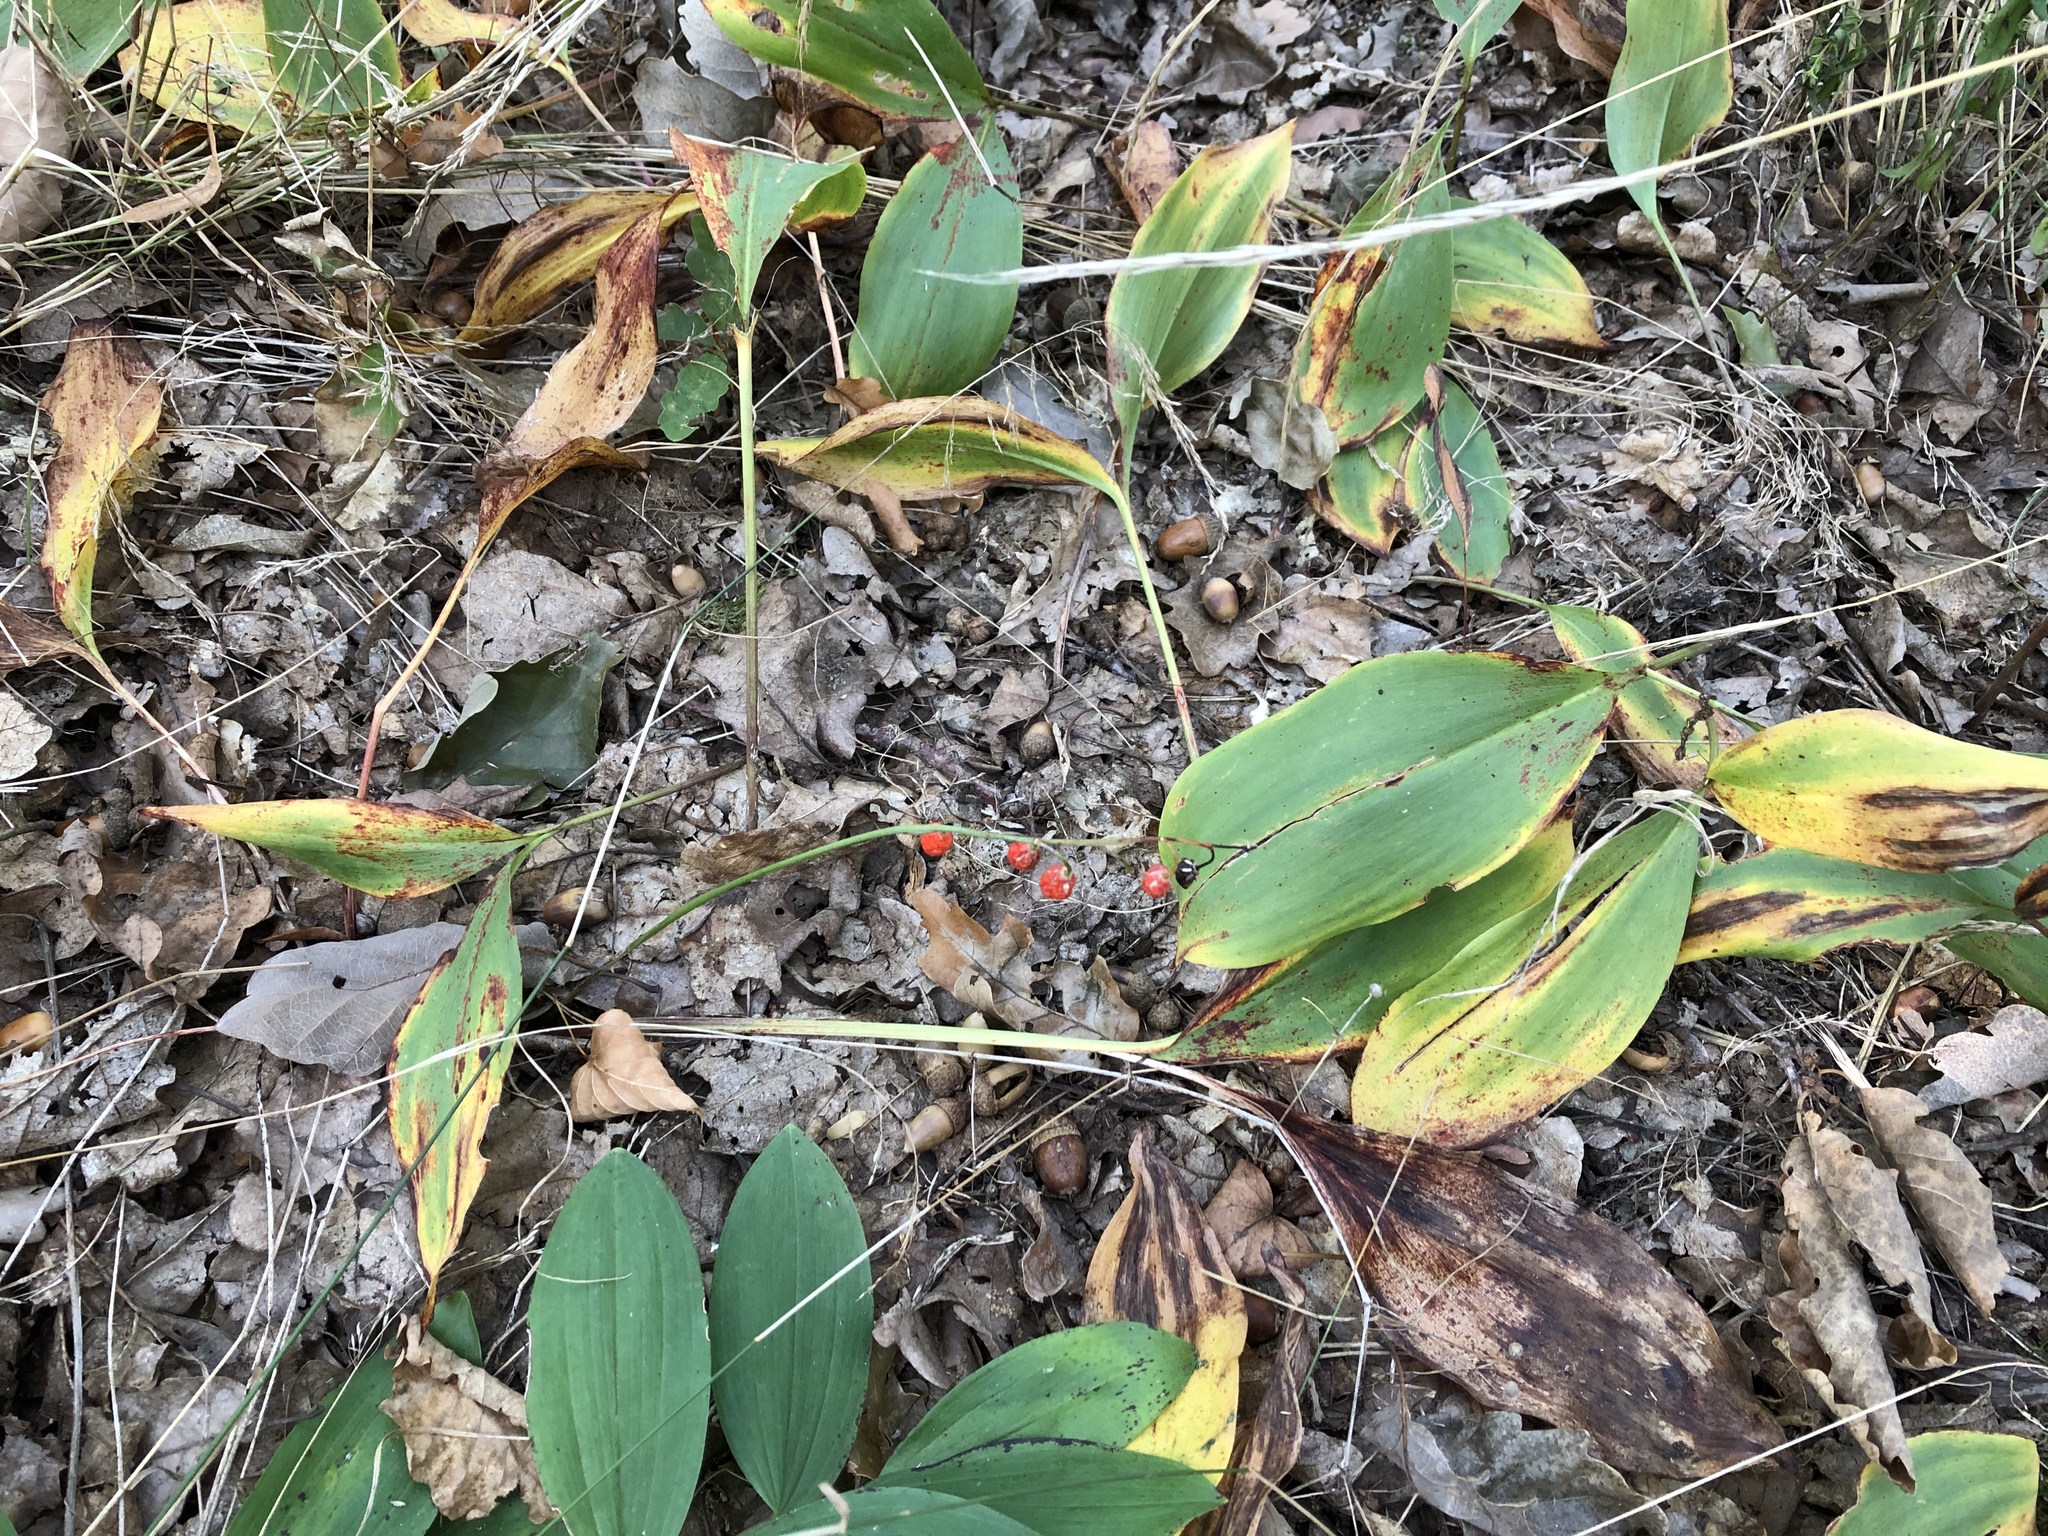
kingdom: Plantae
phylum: Tracheophyta
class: Liliopsida
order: Asparagales
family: Asparagaceae
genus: Convallaria
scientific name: Convallaria majalis
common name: Lily-of-the-valley
